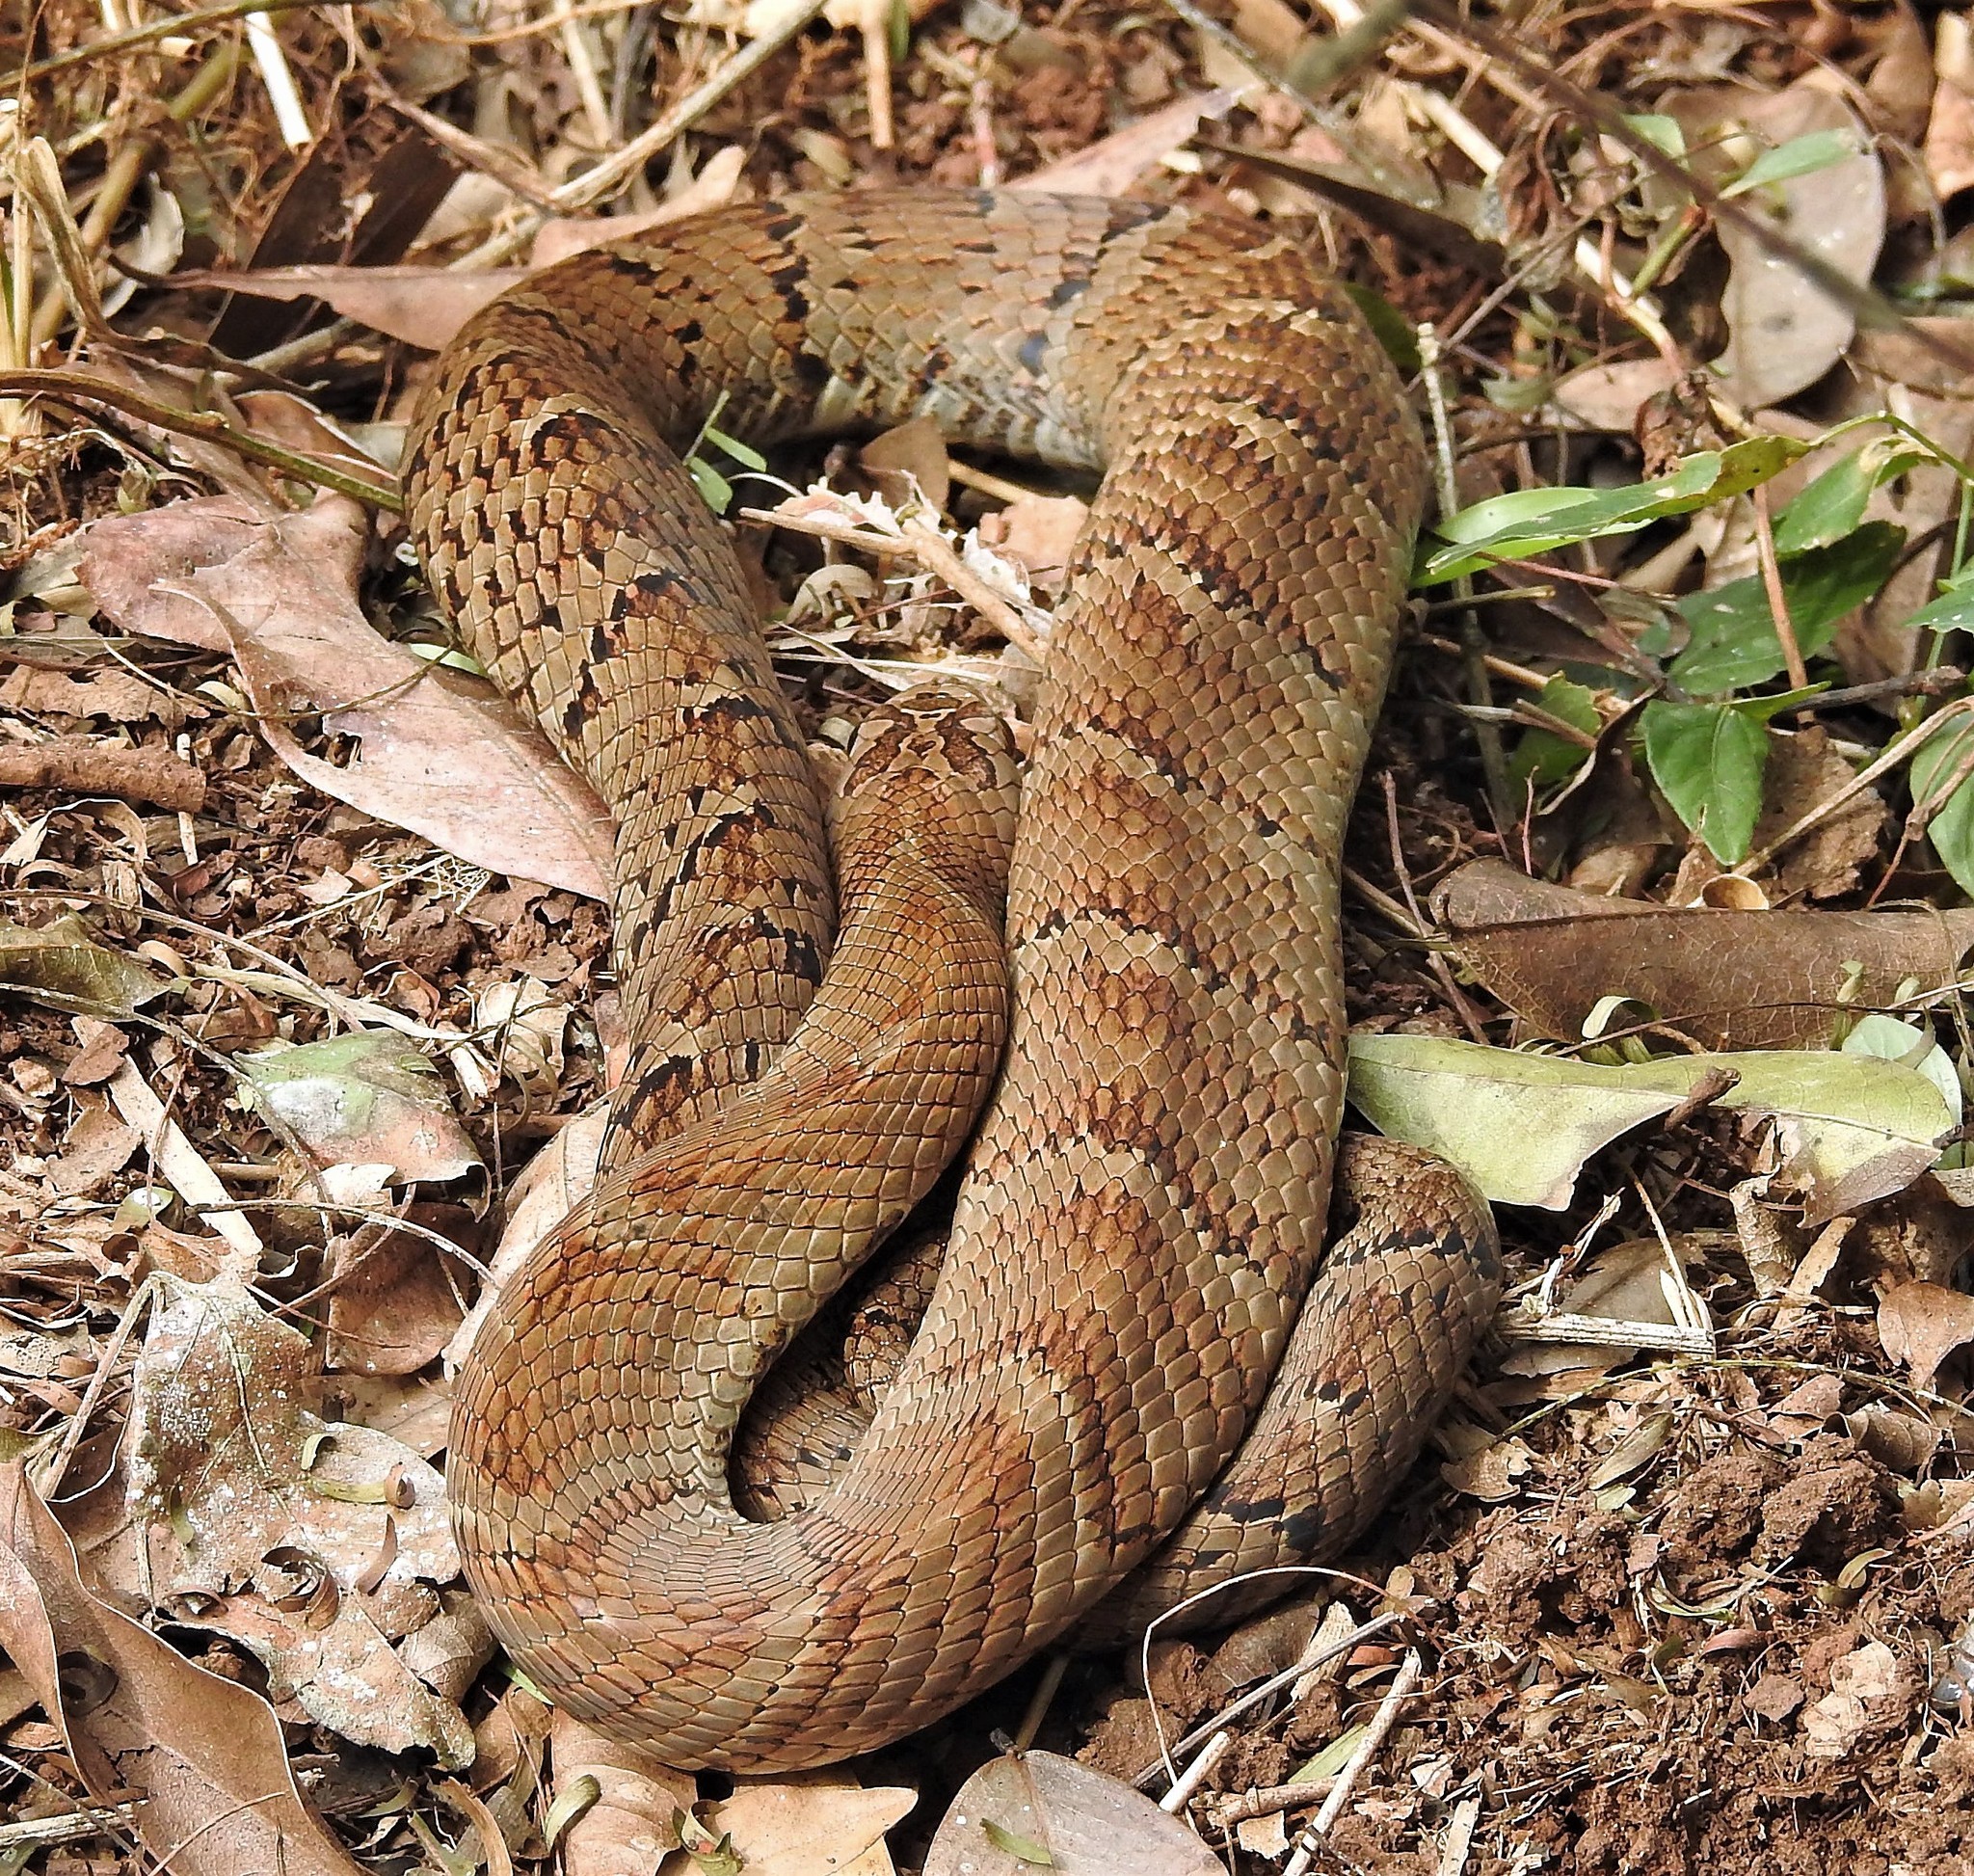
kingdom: Animalia
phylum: Chordata
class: Squamata
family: Colubridae
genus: Xenodon
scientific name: Xenodon neuwiedii
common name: Neuwied's false fer-de-lance
